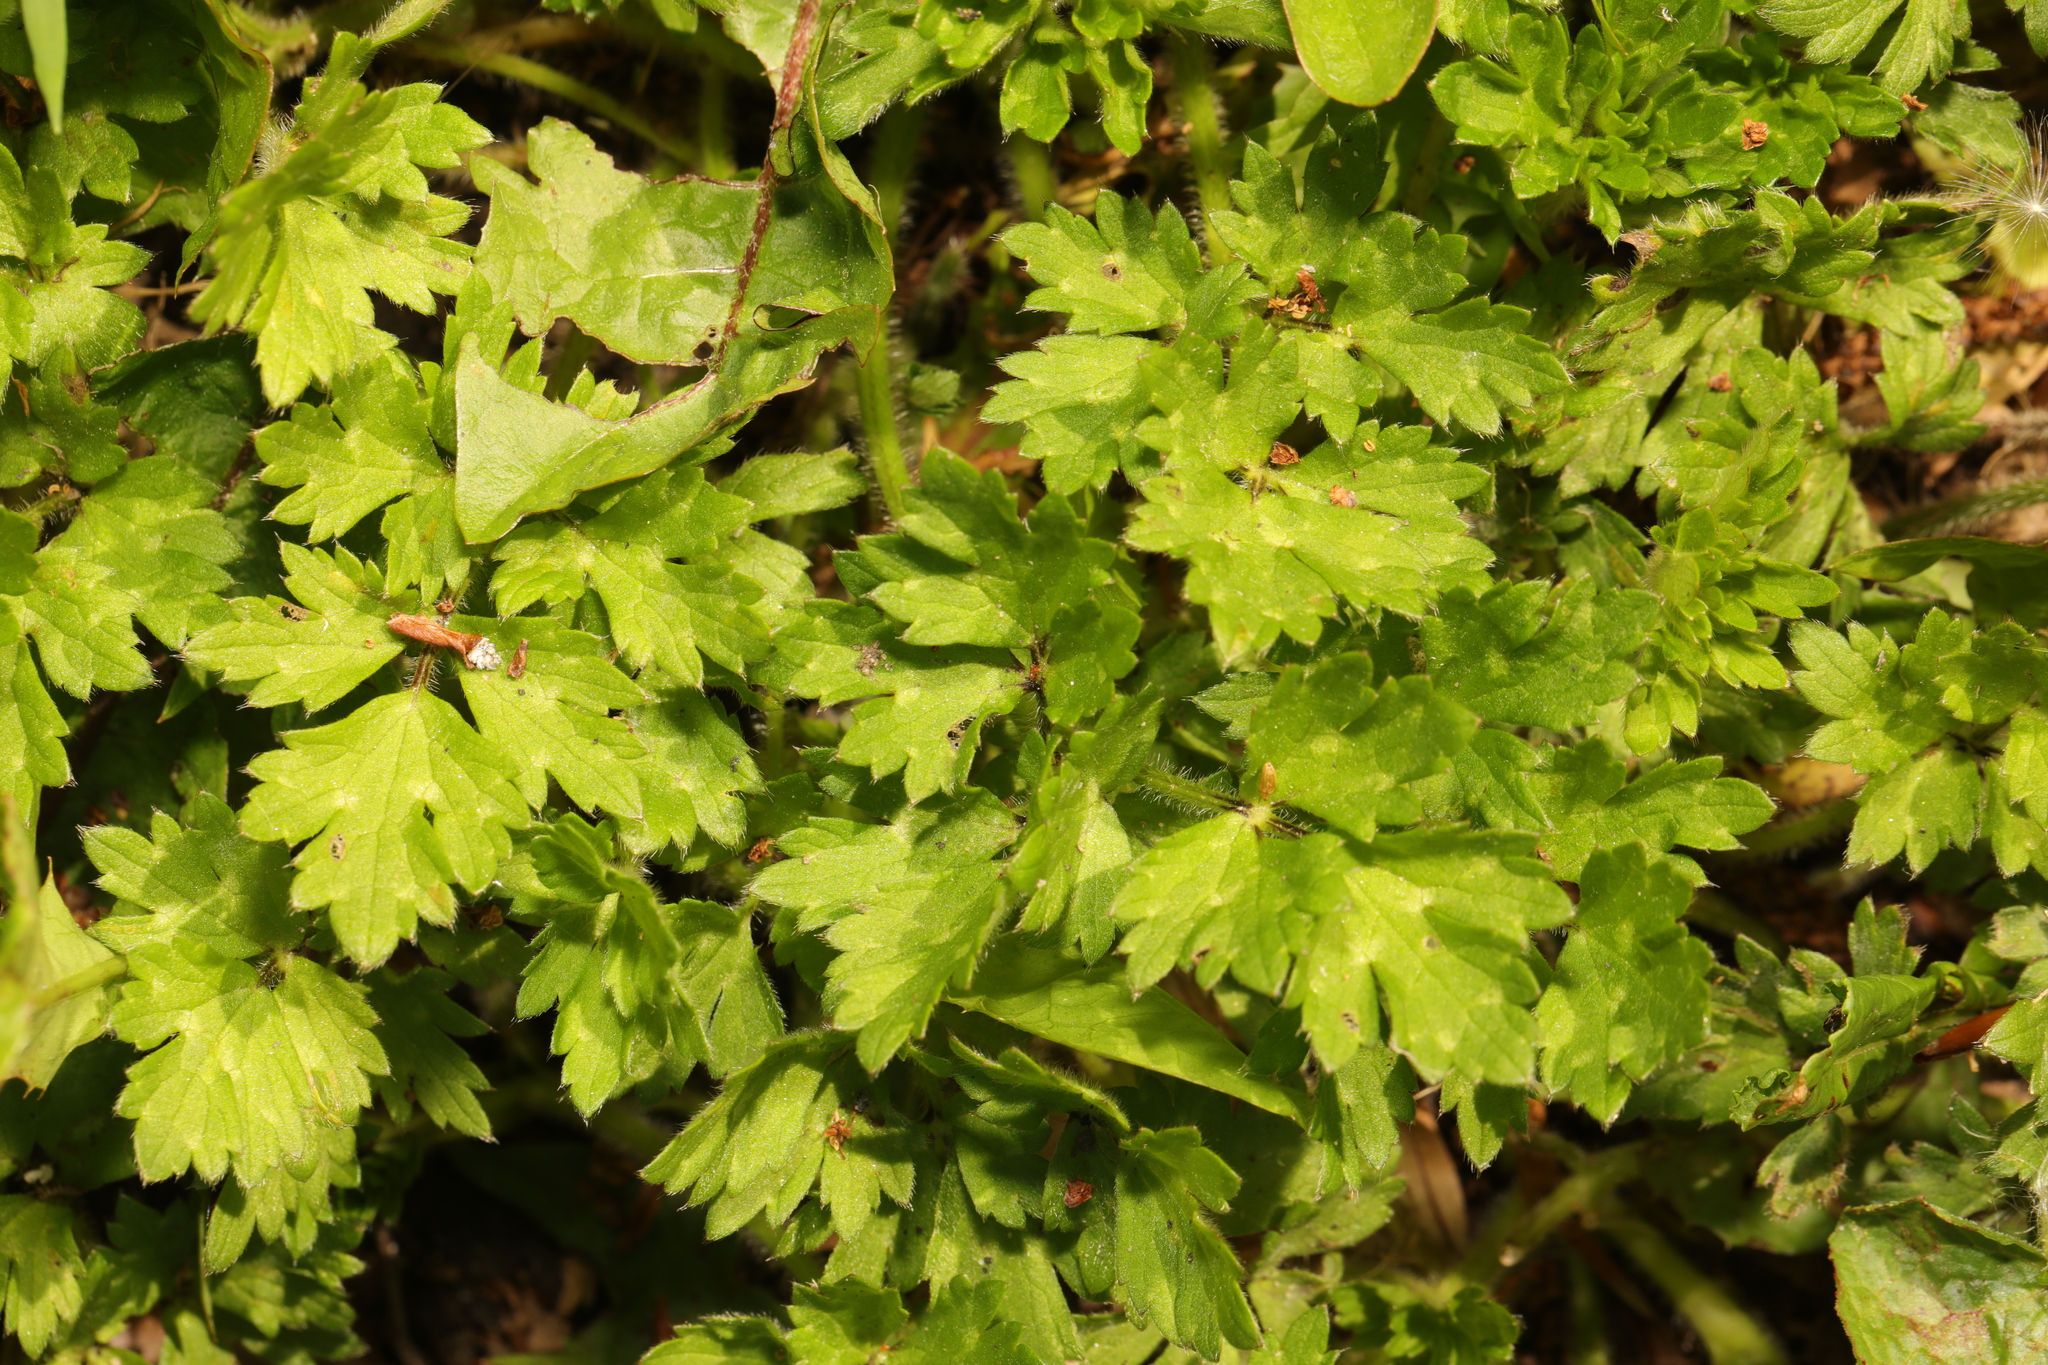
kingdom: Plantae
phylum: Tracheophyta
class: Magnoliopsida
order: Ranunculales
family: Ranunculaceae
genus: Ranunculus
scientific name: Ranunculus repens
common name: Creeping buttercup
